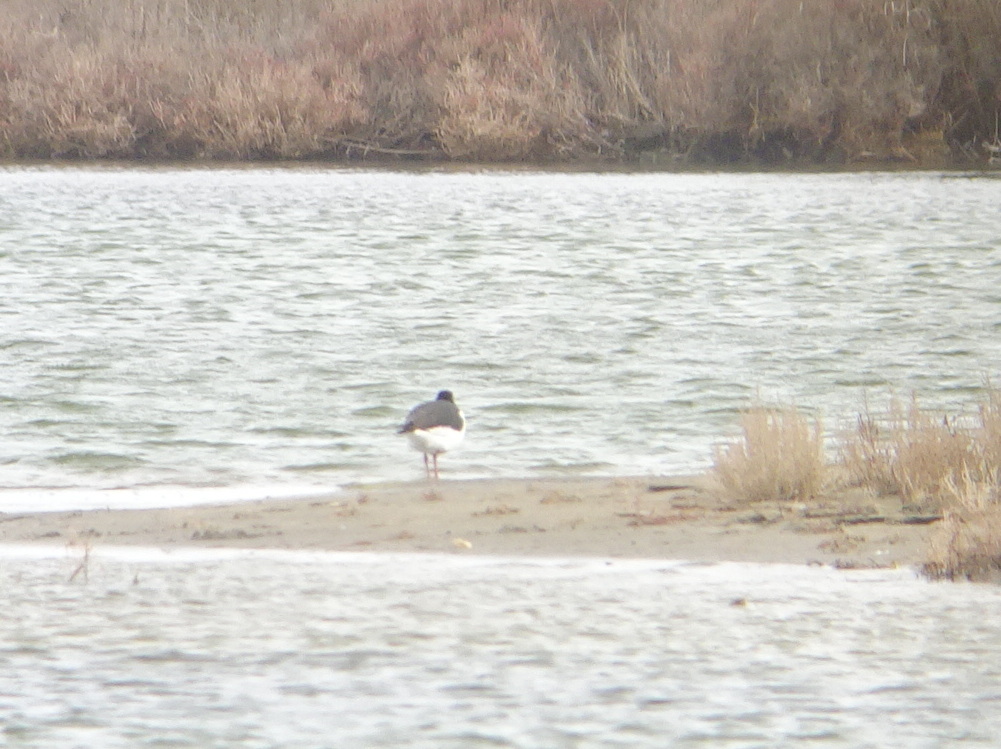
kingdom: Animalia
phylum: Chordata
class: Aves
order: Charadriiformes
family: Haematopodidae
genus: Haematopus
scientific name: Haematopus ostralegus
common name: Eurasian oystercatcher
